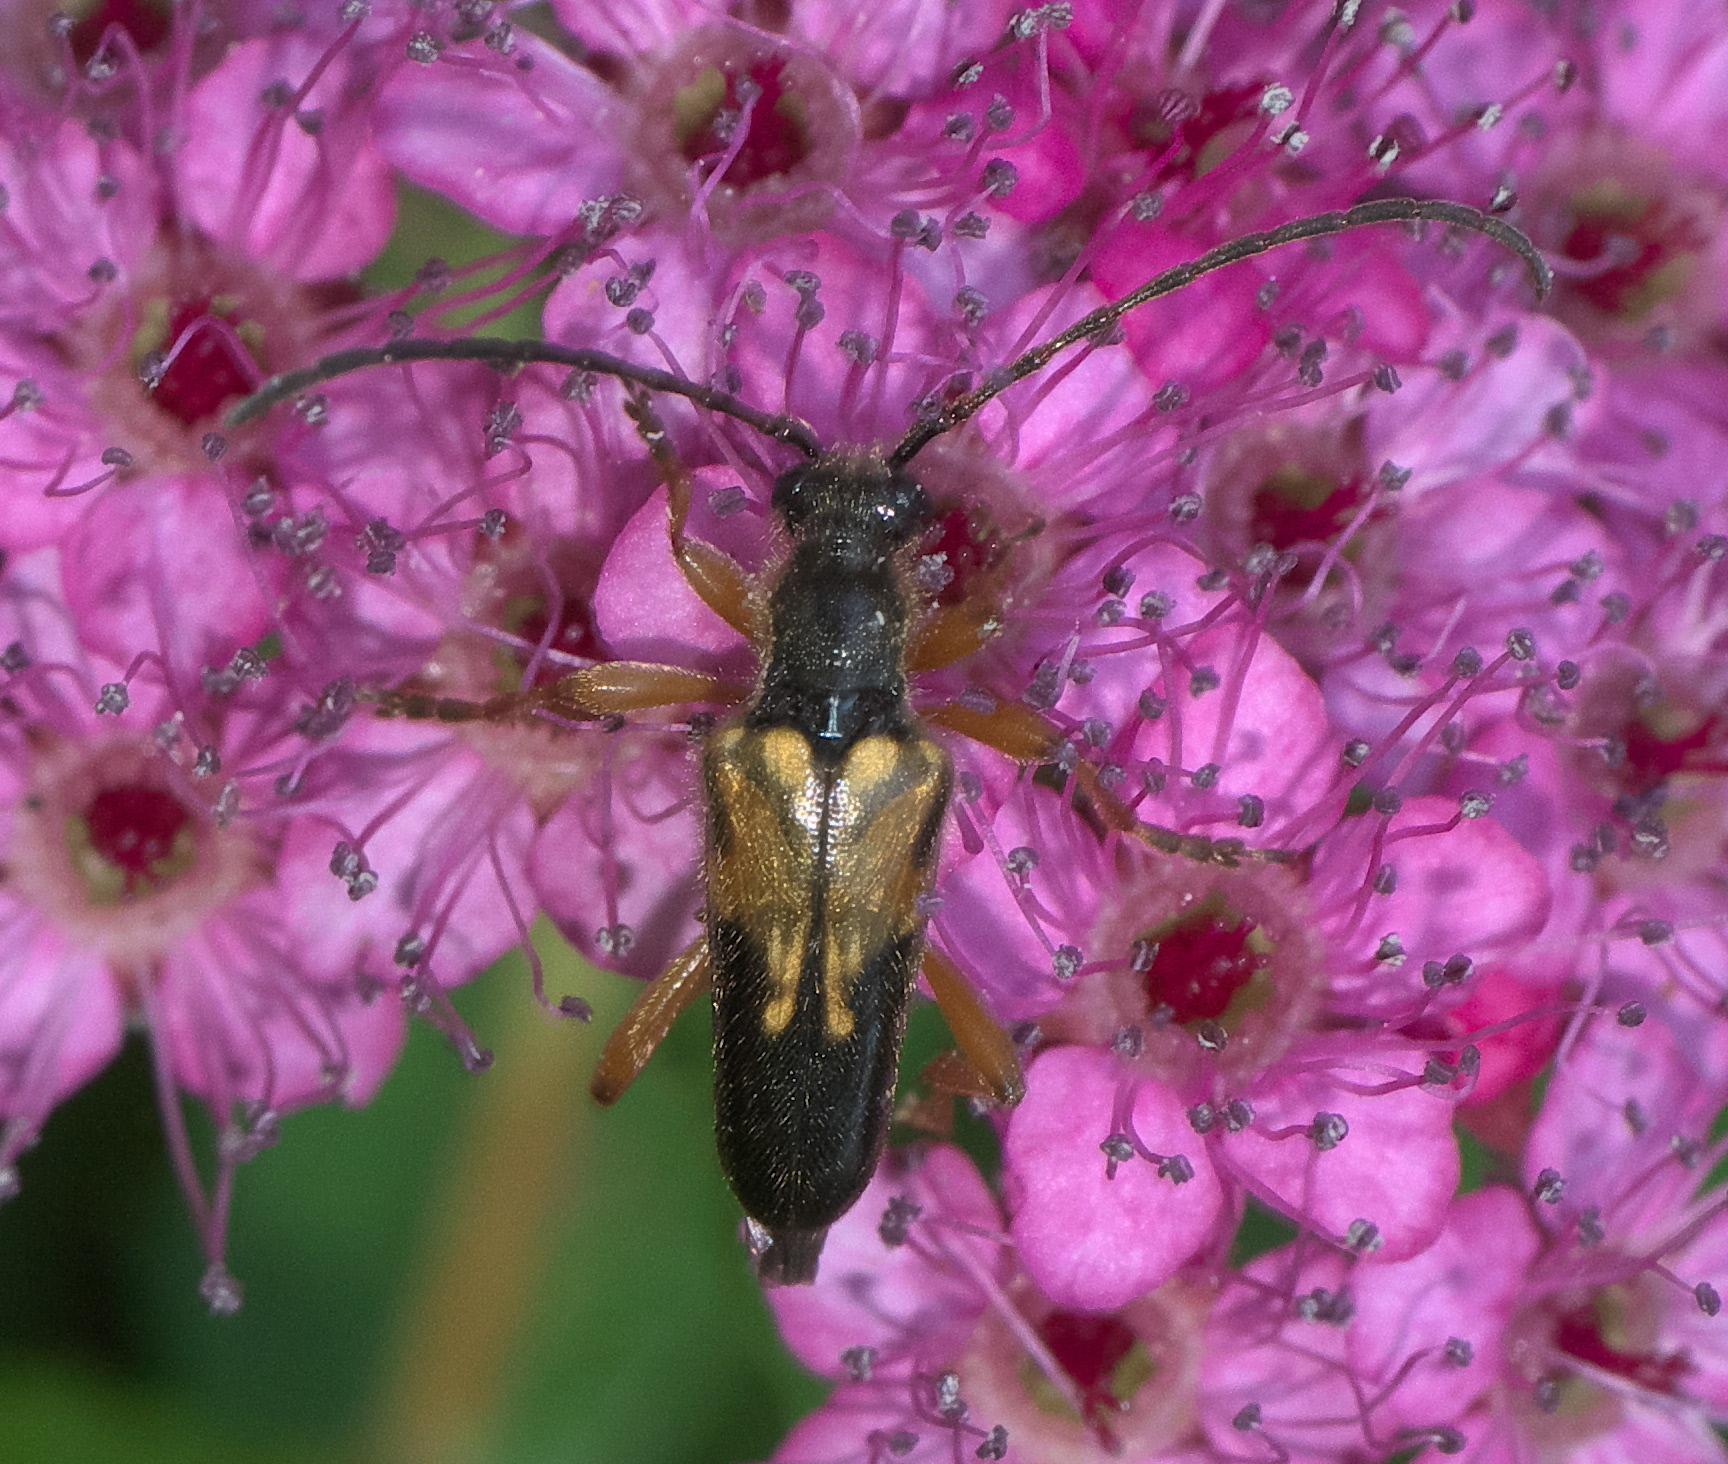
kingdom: Animalia
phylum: Arthropoda
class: Insecta
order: Coleoptera
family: Cerambycidae
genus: Xestoleptura
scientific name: Xestoleptura crassipes
